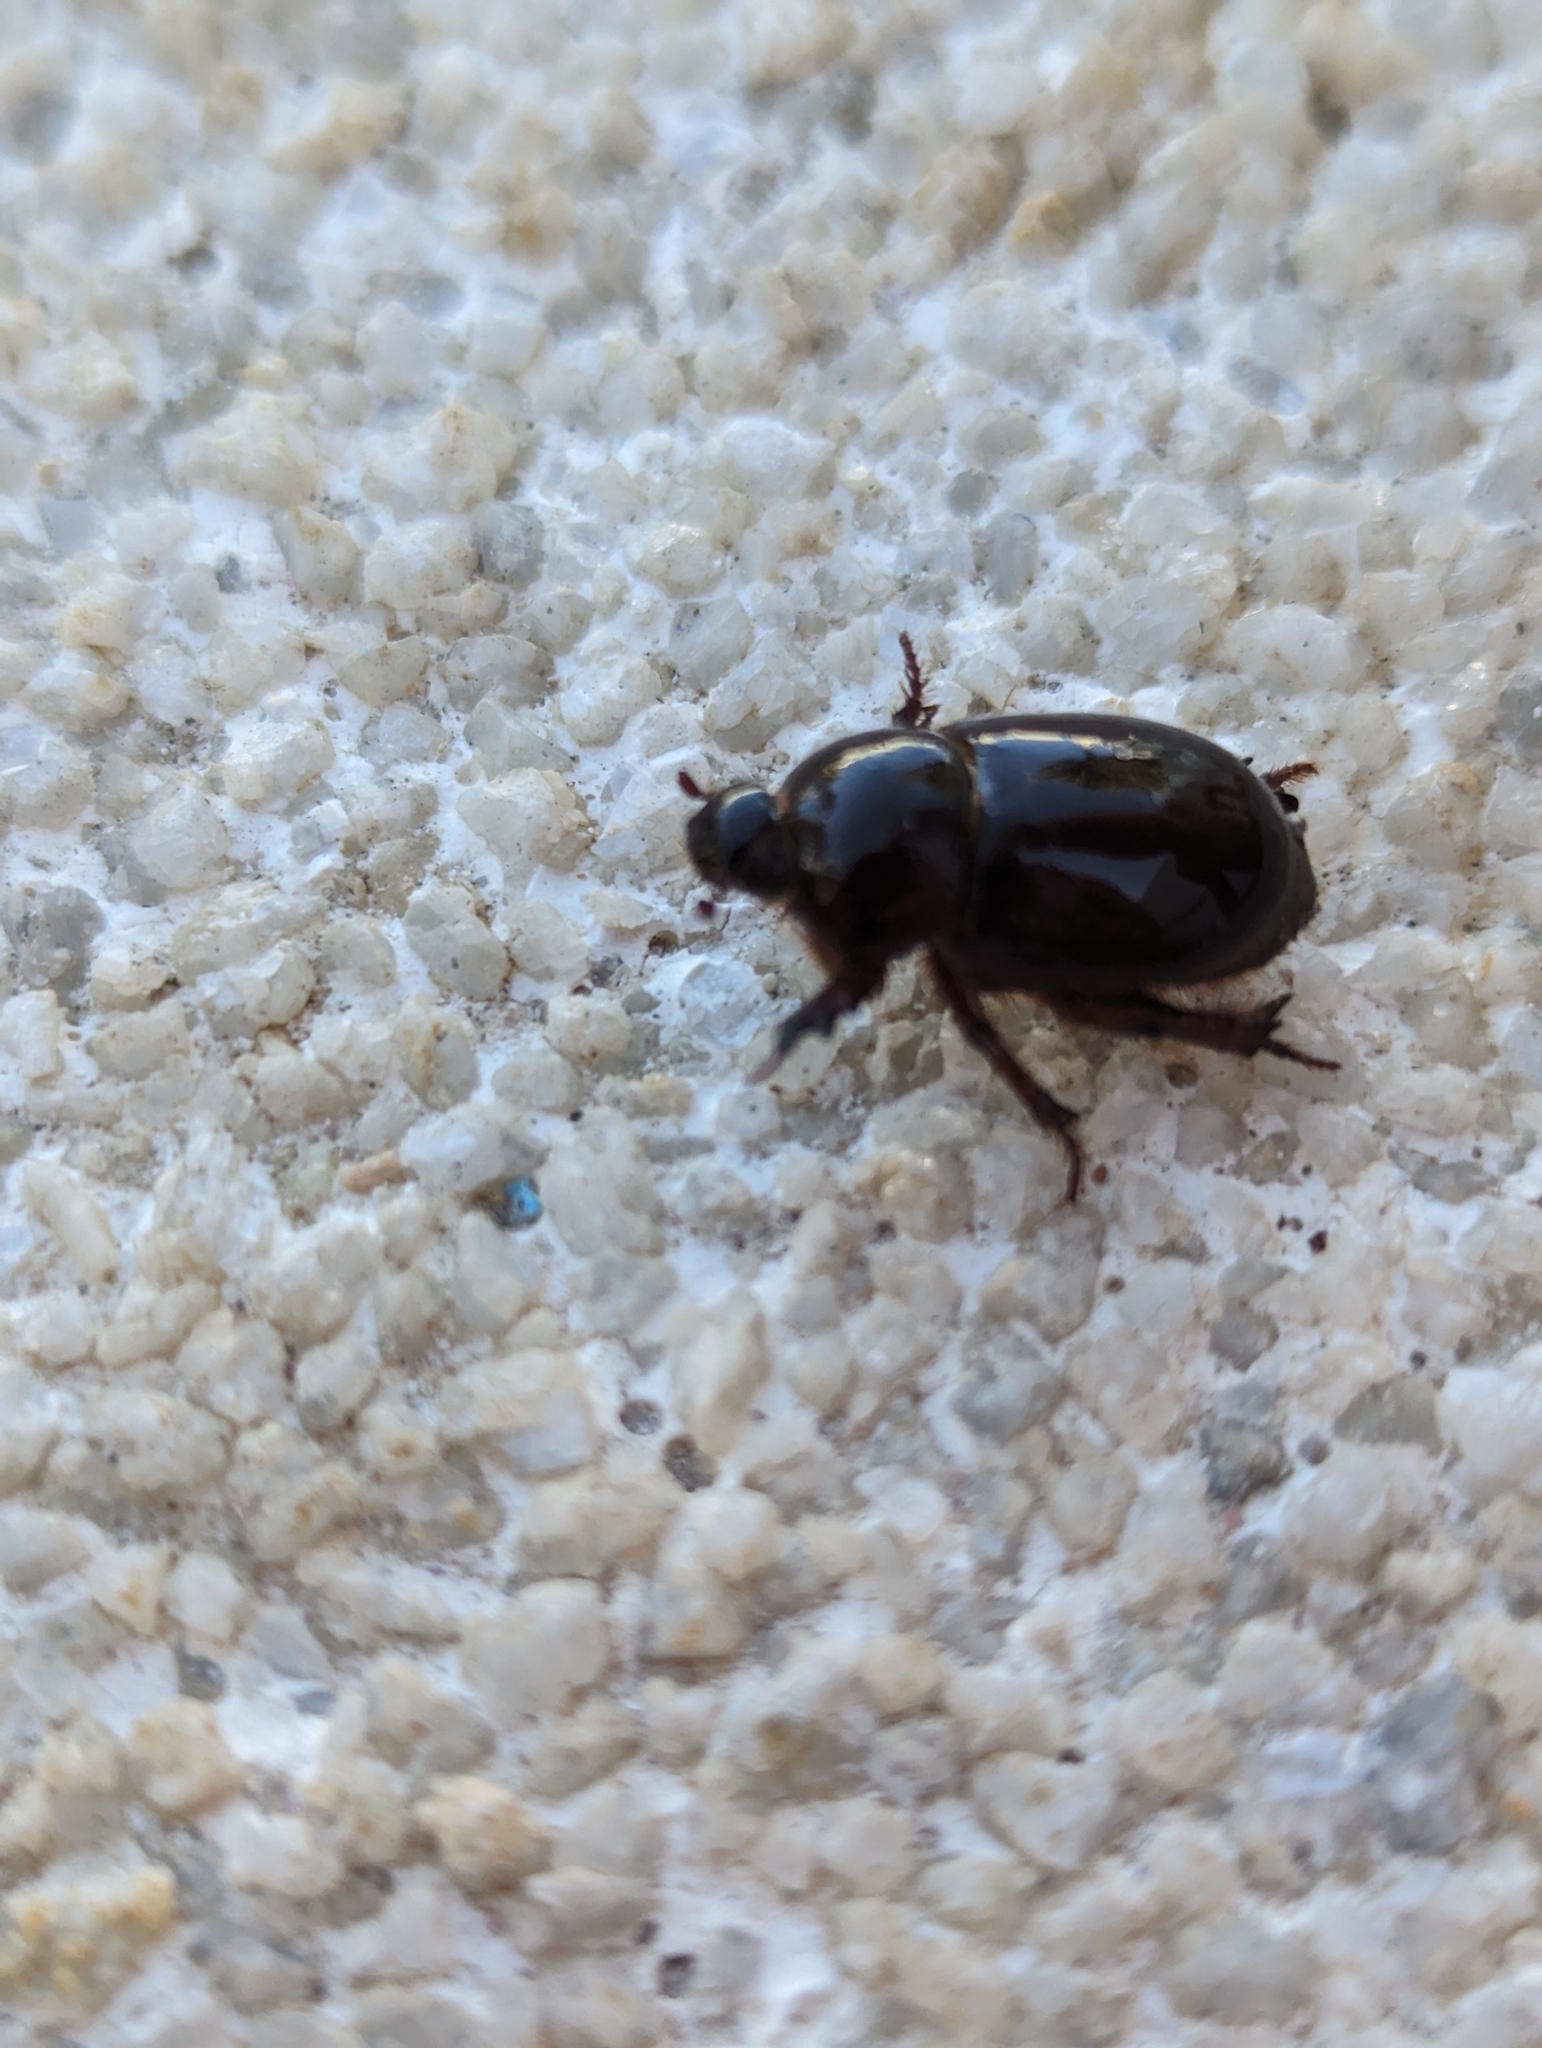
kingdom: Animalia
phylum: Arthropoda
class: Insecta
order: Coleoptera
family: Scarabaeidae
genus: Temnorhynchus
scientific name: Temnorhynchus retusus
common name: Plate-faced beetle
